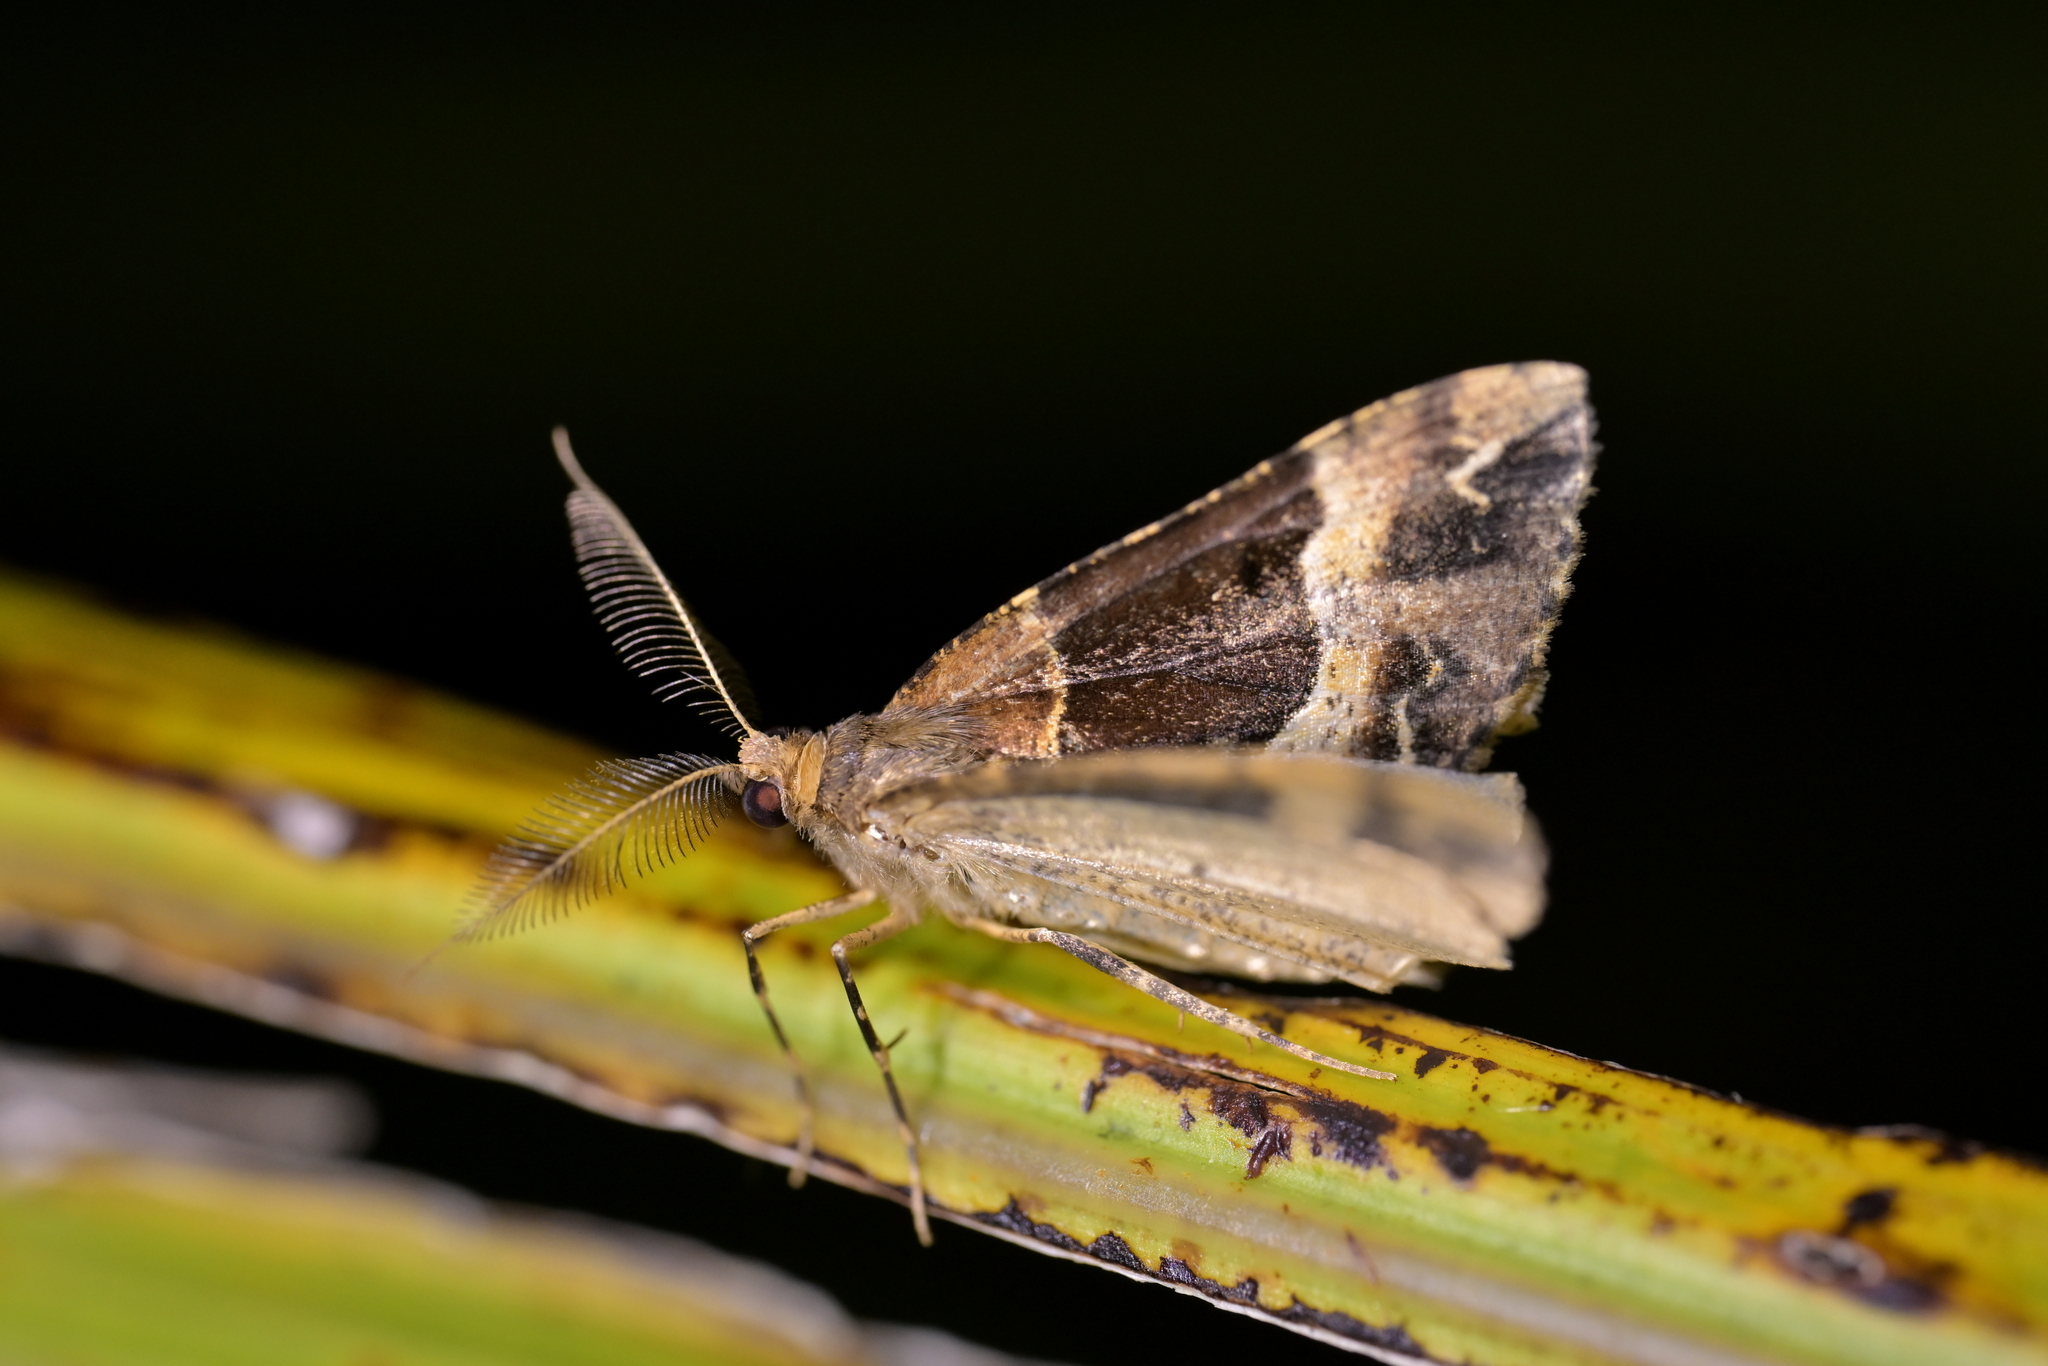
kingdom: Animalia
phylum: Arthropoda
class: Insecta
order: Lepidoptera
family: Geometridae
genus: Pseudocoremia
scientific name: Pseudocoremia fascialata
